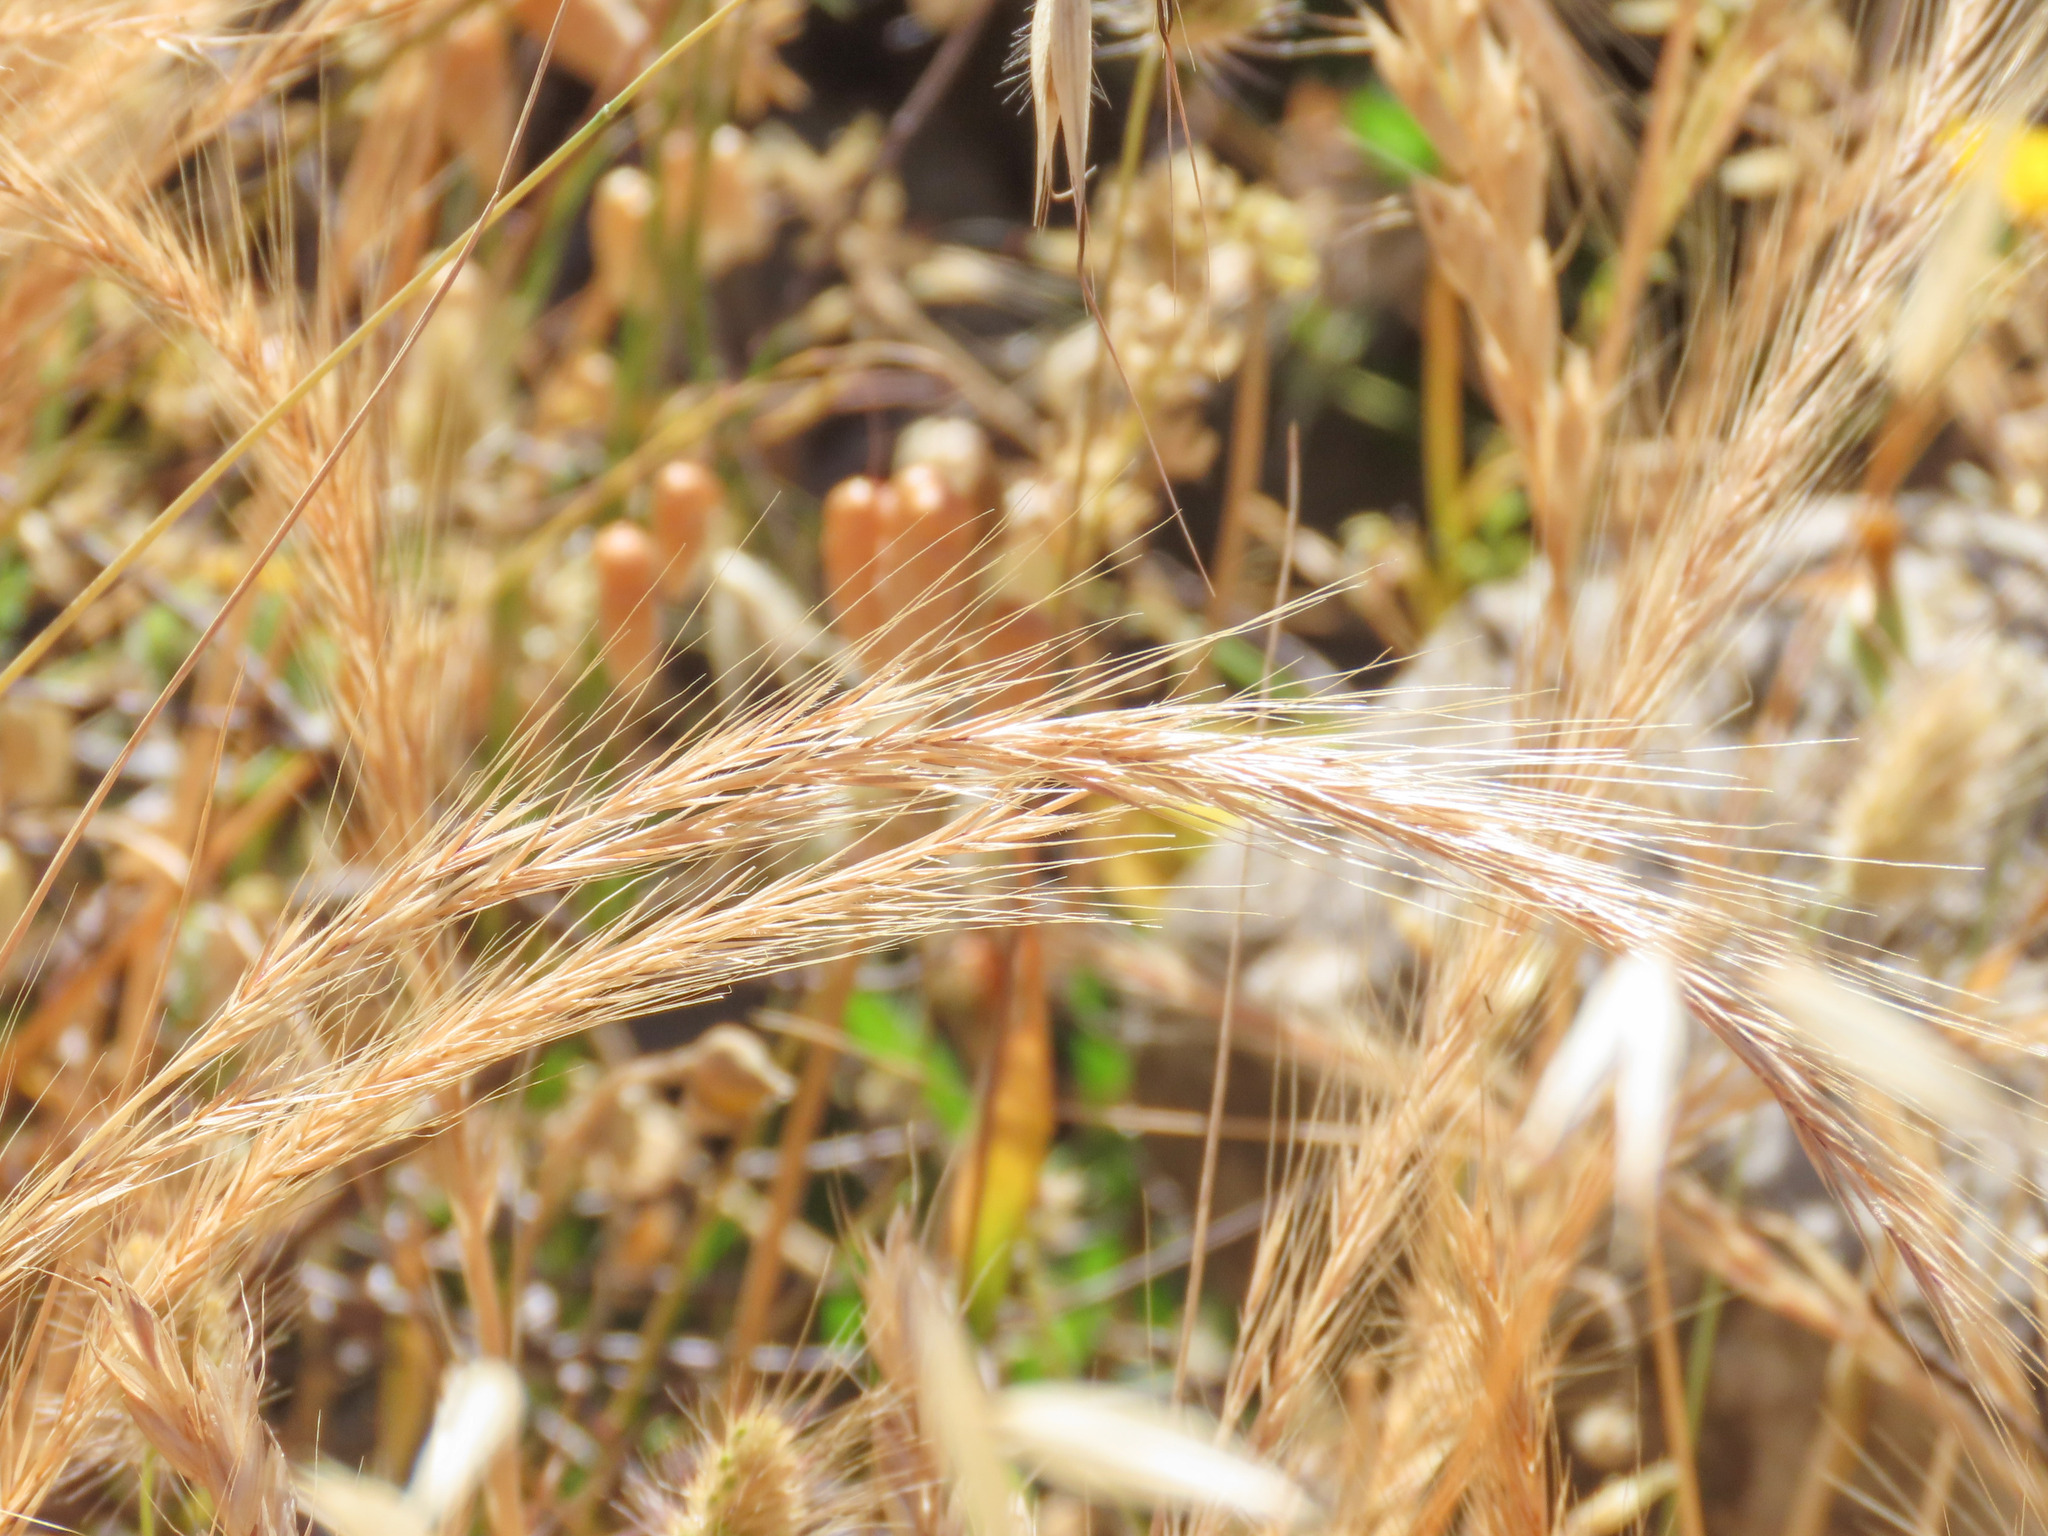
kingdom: Plantae
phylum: Tracheophyta
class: Liliopsida
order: Poales
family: Poaceae
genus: Festuca
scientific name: Festuca myuros
